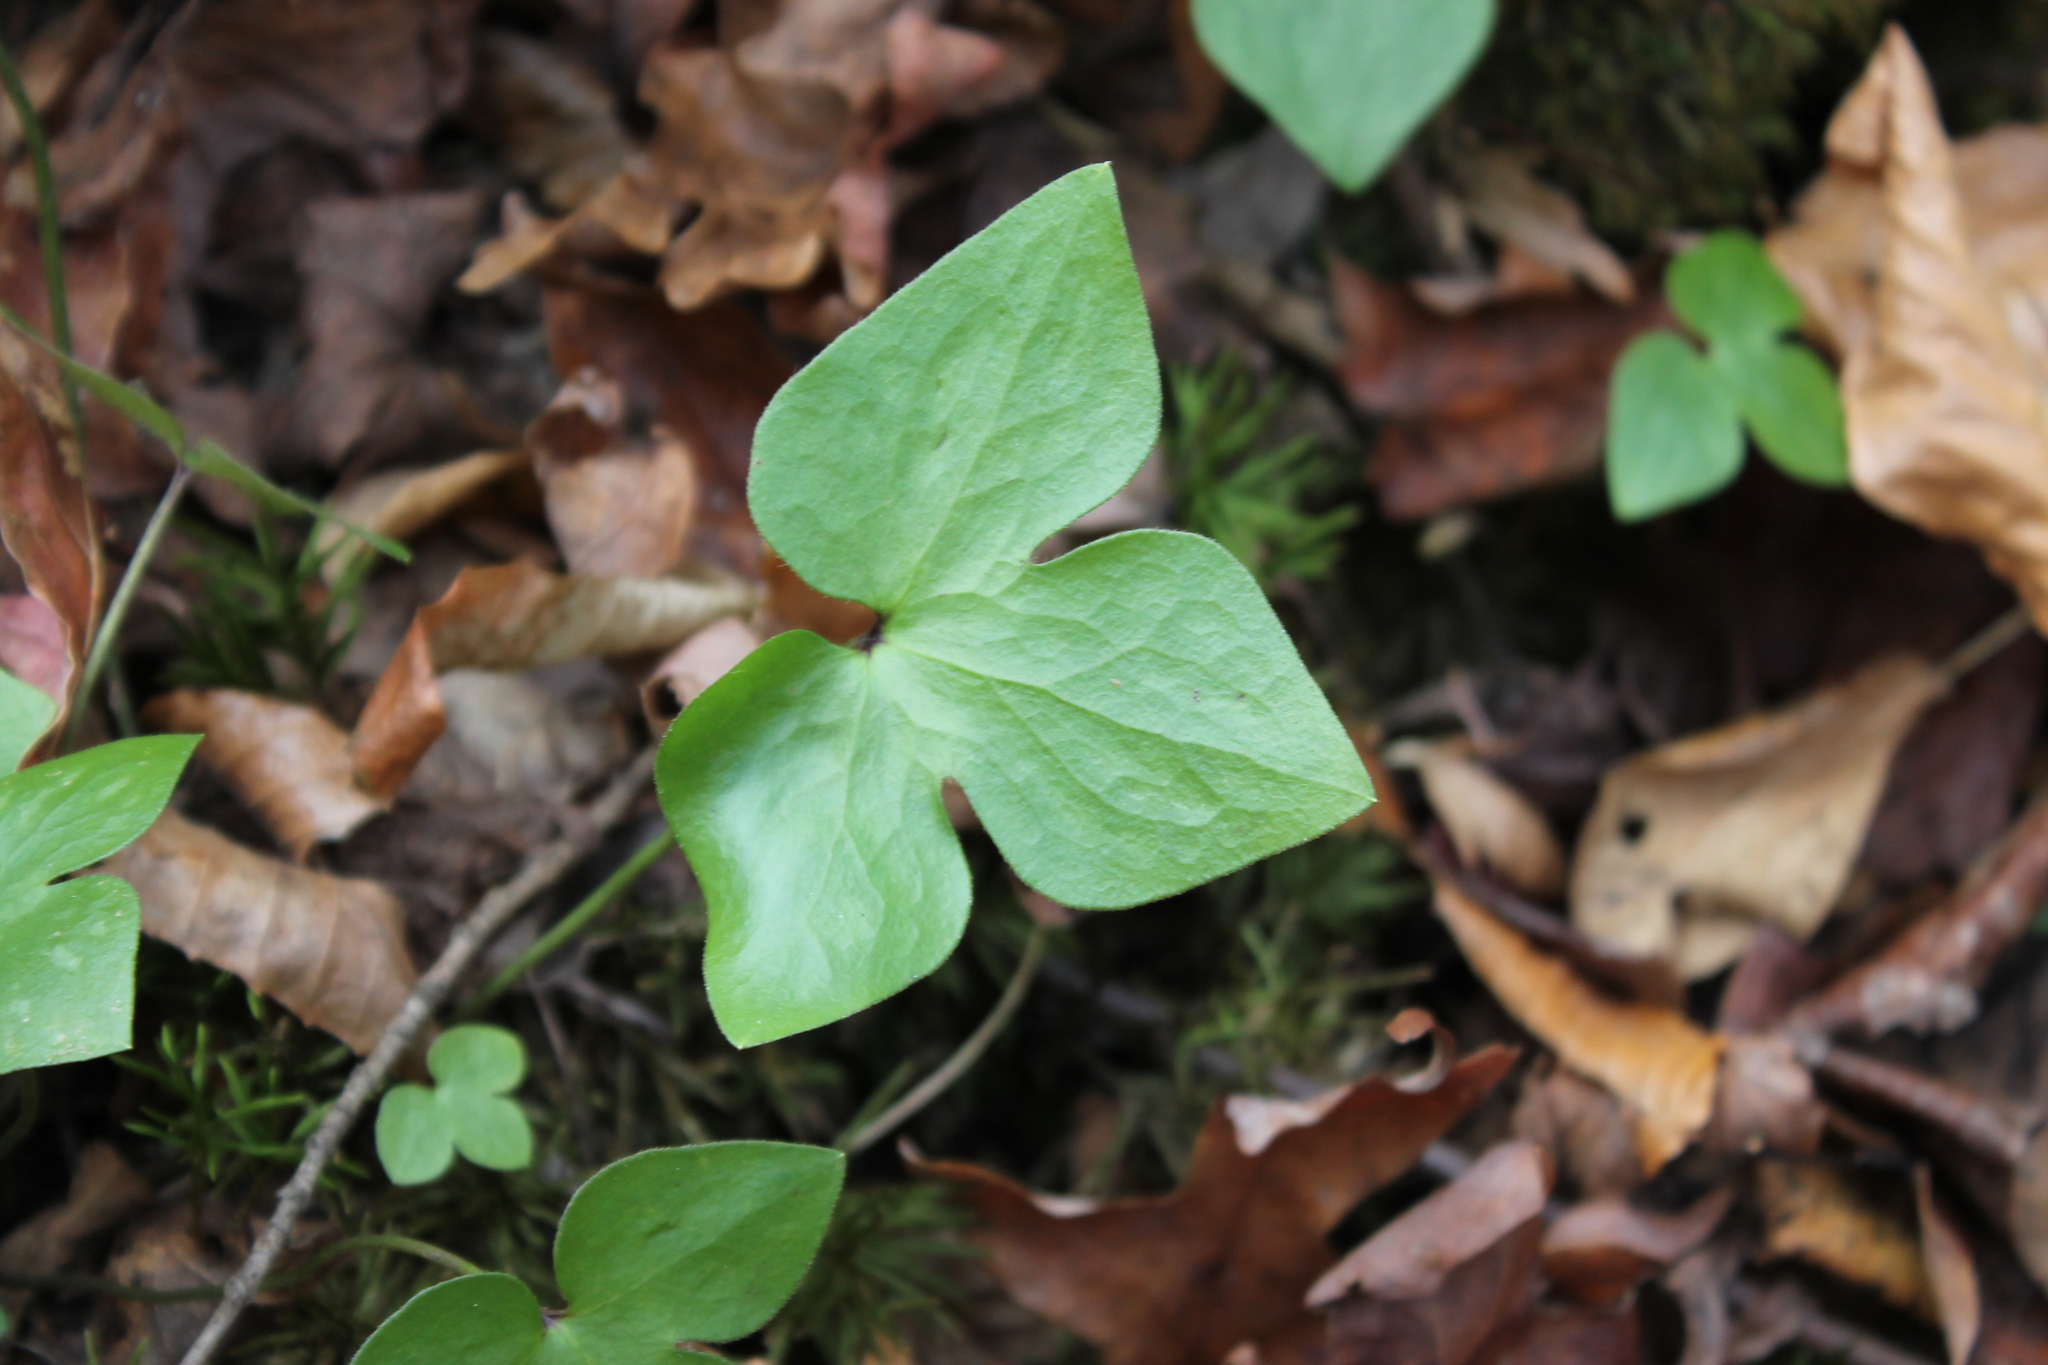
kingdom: Plantae
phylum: Tracheophyta
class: Magnoliopsida
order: Ranunculales
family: Ranunculaceae
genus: Hepatica
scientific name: Hepatica acutiloba
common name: Sharp-lobed hepatica
